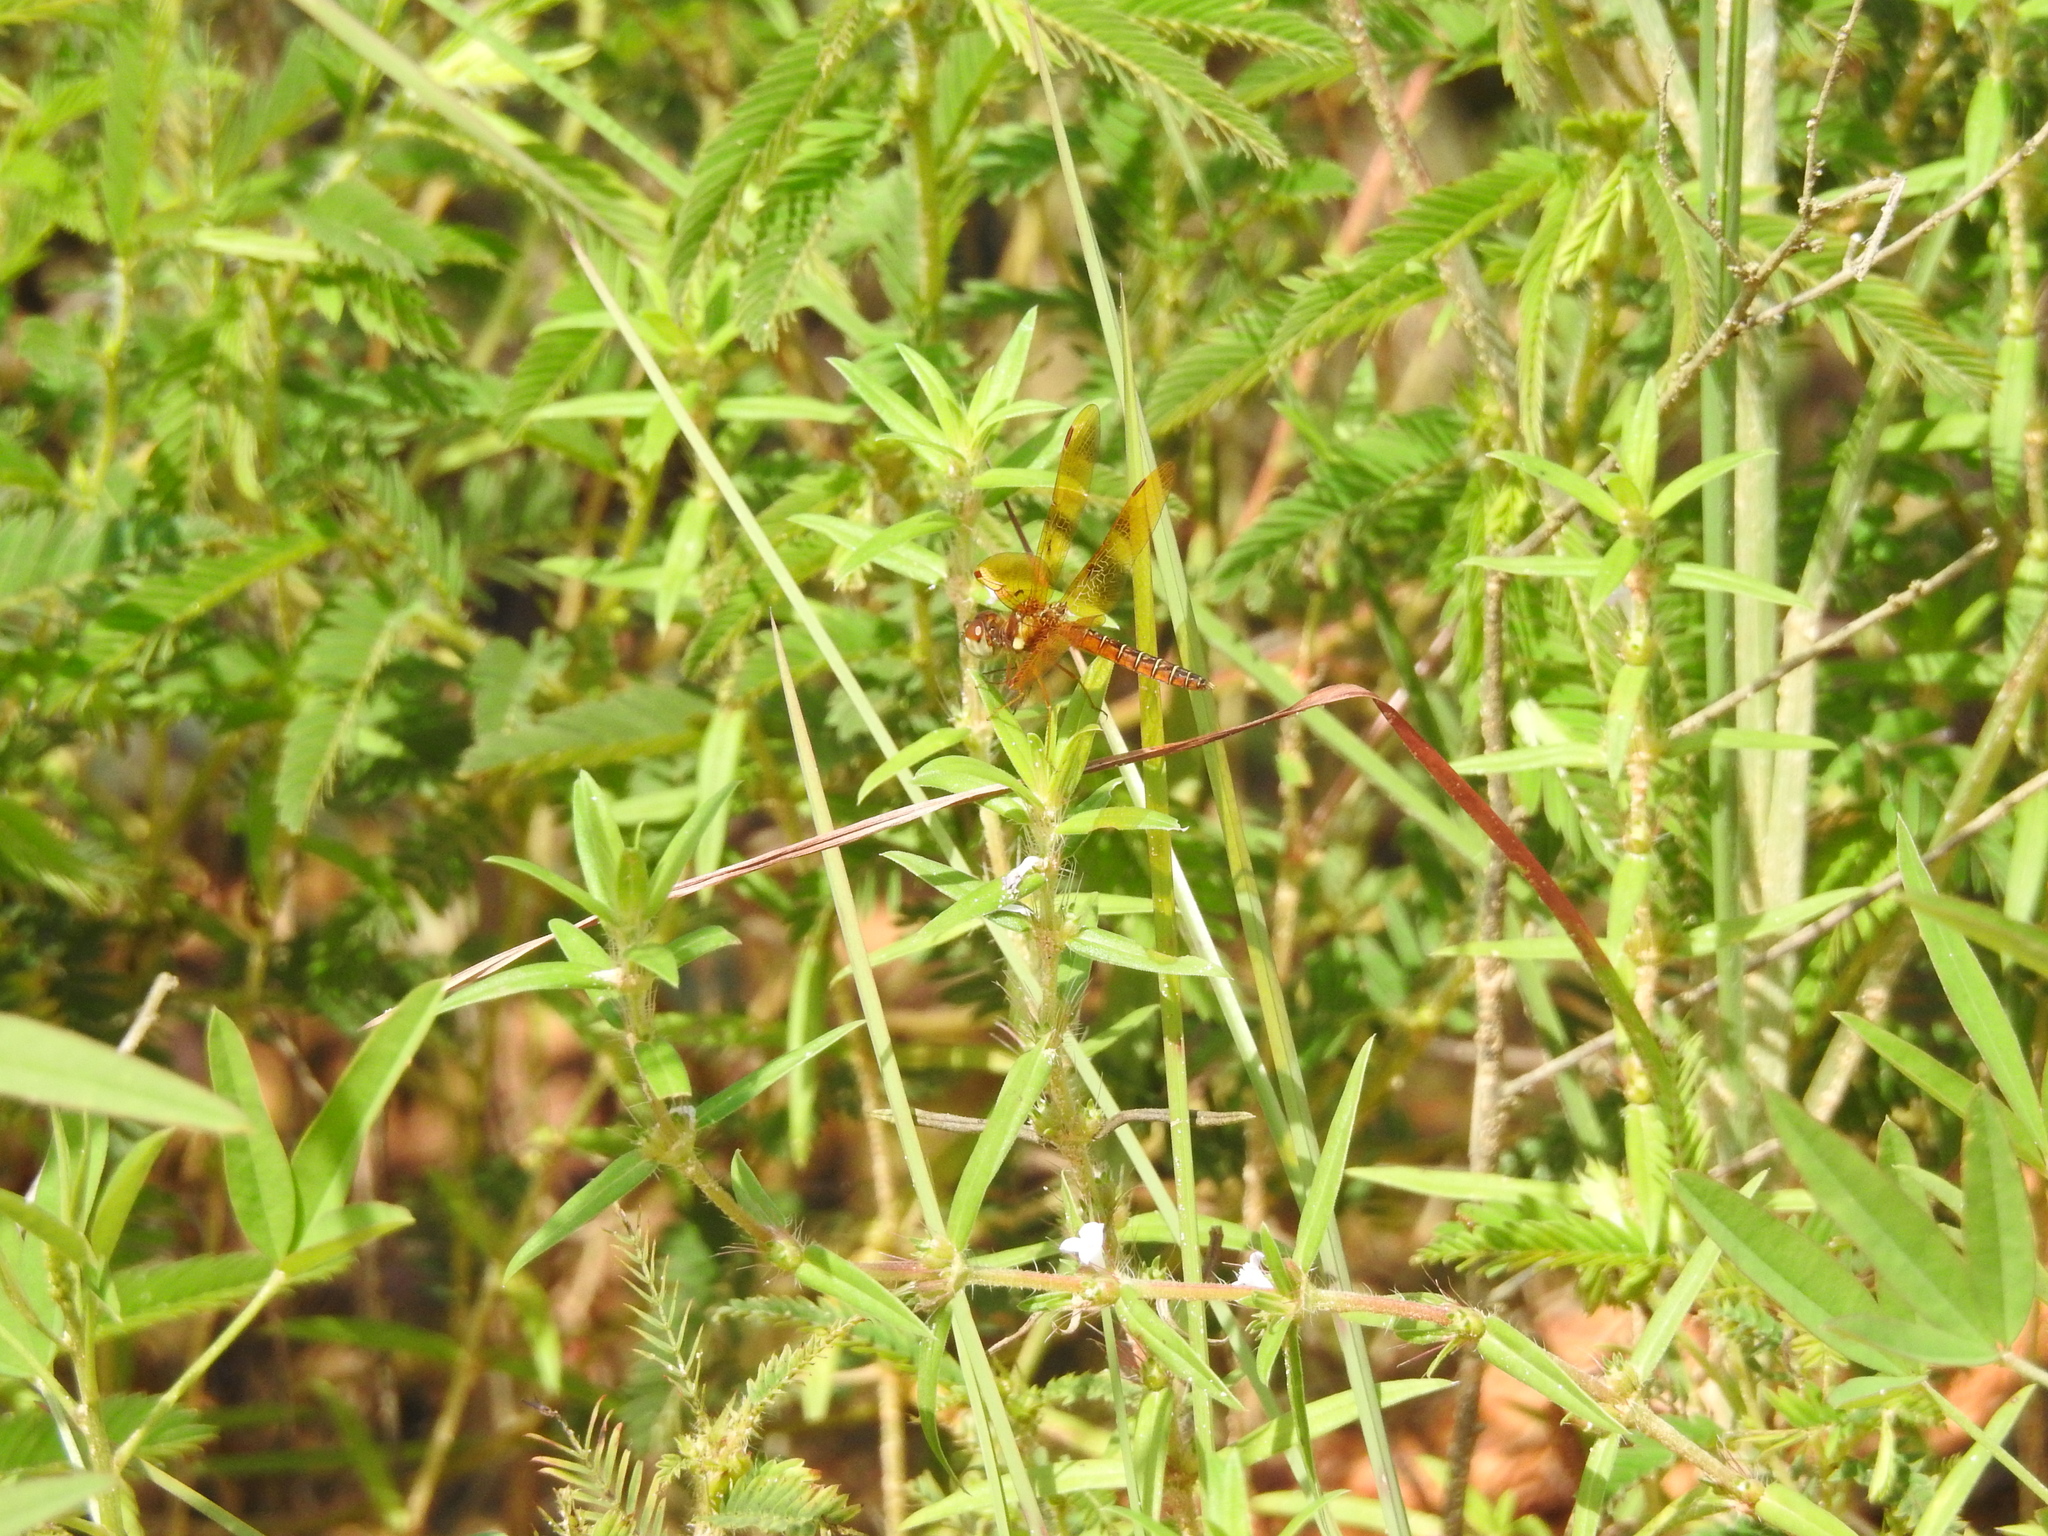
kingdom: Animalia
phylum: Arthropoda
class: Insecta
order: Odonata
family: Libellulidae
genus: Perithemis
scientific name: Perithemis tenera
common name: Eastern amberwing
